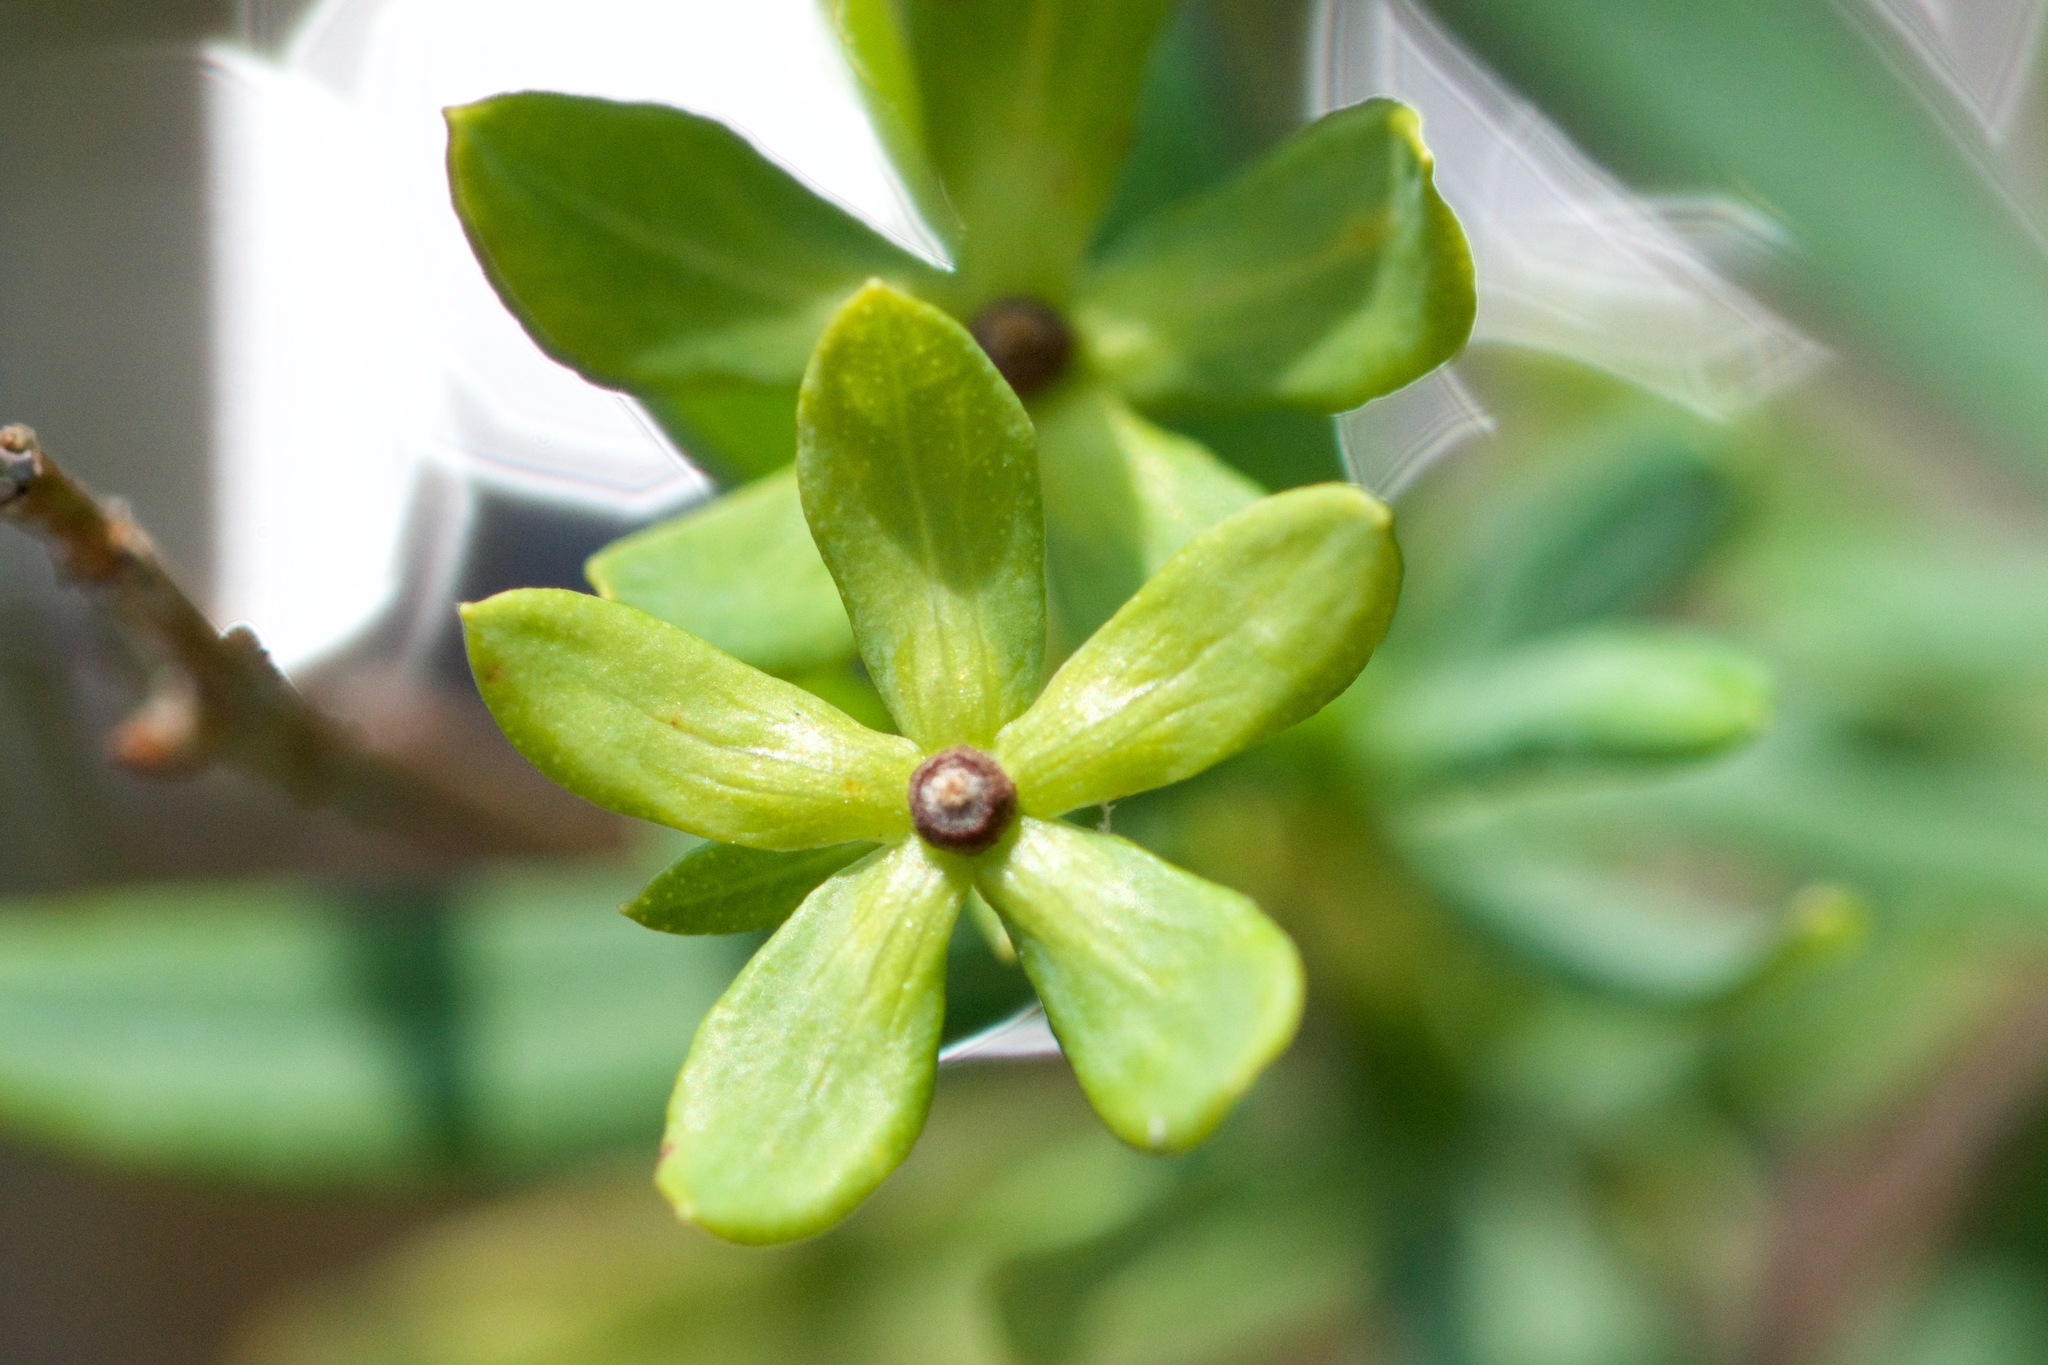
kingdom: Plantae
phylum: Tracheophyta
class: Magnoliopsida
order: Malpighiales
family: Hypericaceae
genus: Hypericum
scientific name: Hypericum kalmianum
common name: Kalm's st. john's-wort
